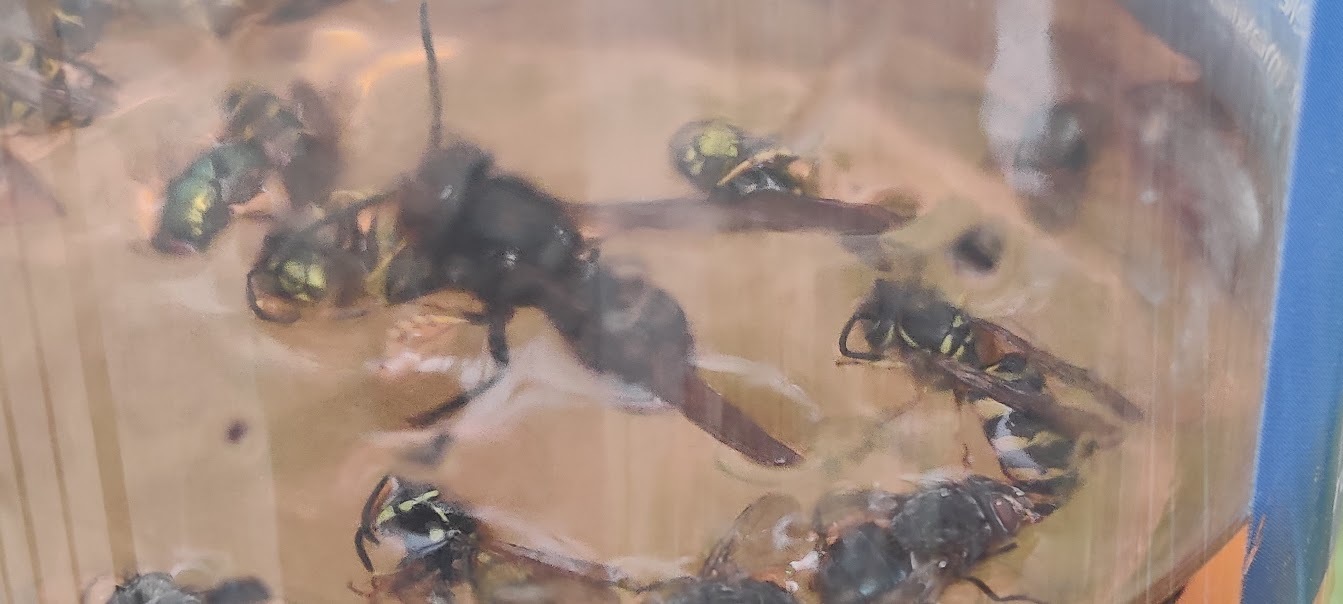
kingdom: Animalia
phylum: Arthropoda
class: Insecta
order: Hymenoptera
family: Vespidae
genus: Vespa
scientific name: Vespa velutina
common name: Asian hornet
